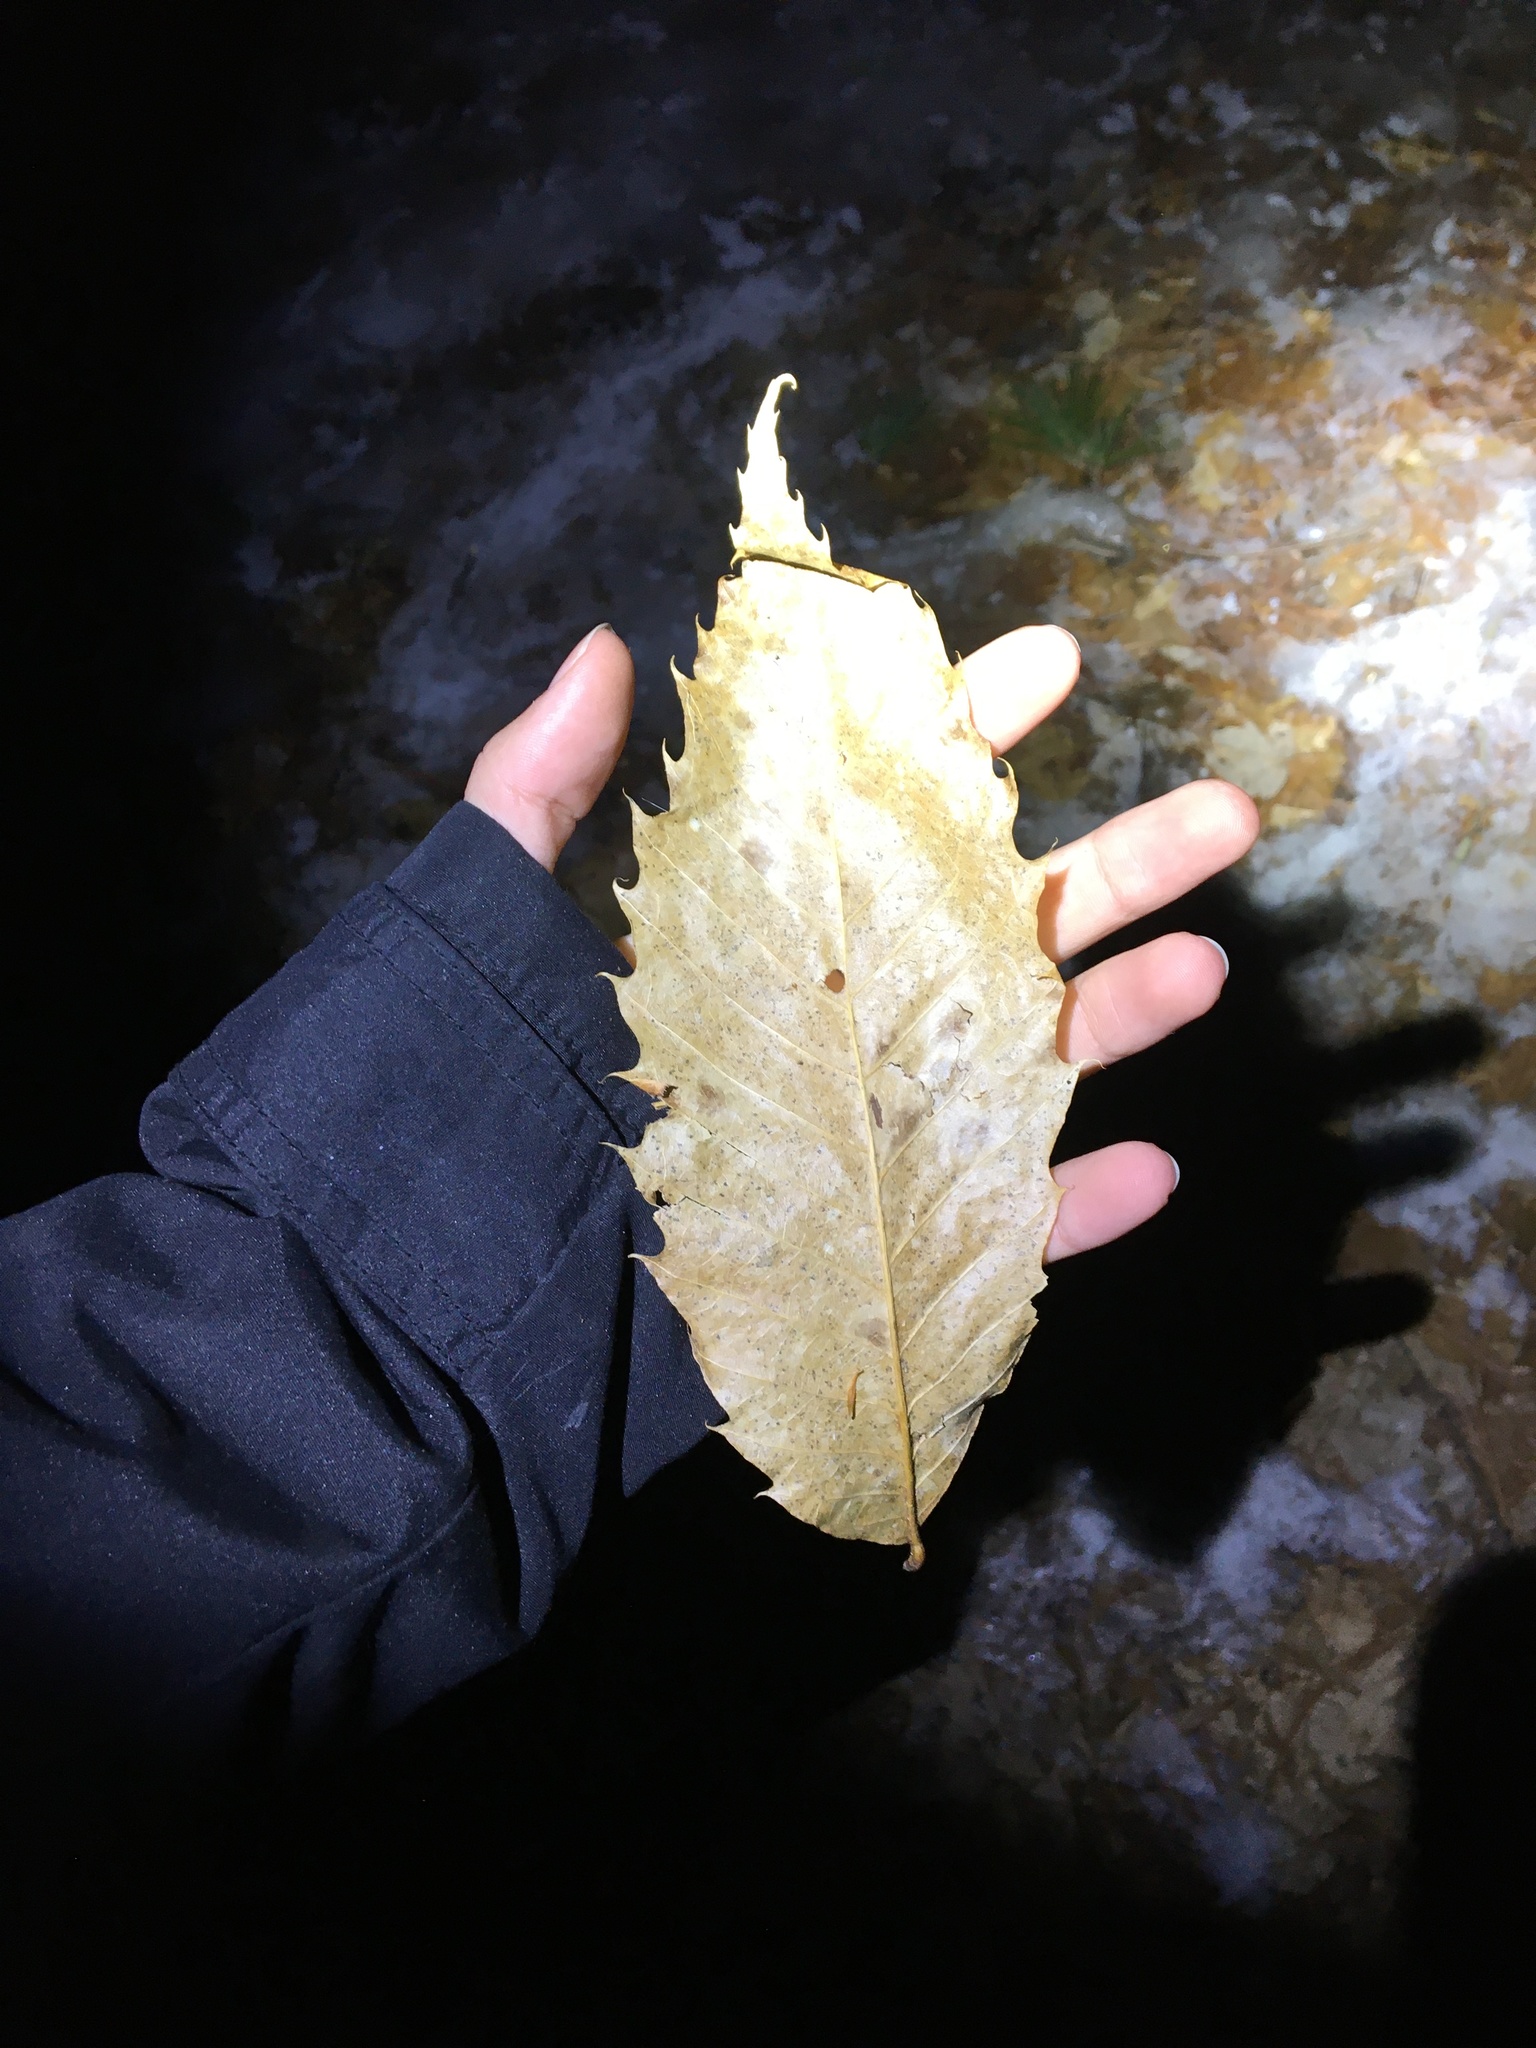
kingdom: Plantae
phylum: Tracheophyta
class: Magnoliopsida
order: Fagales
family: Fagaceae
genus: Castanea
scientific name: Castanea dentata
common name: American chestnut
